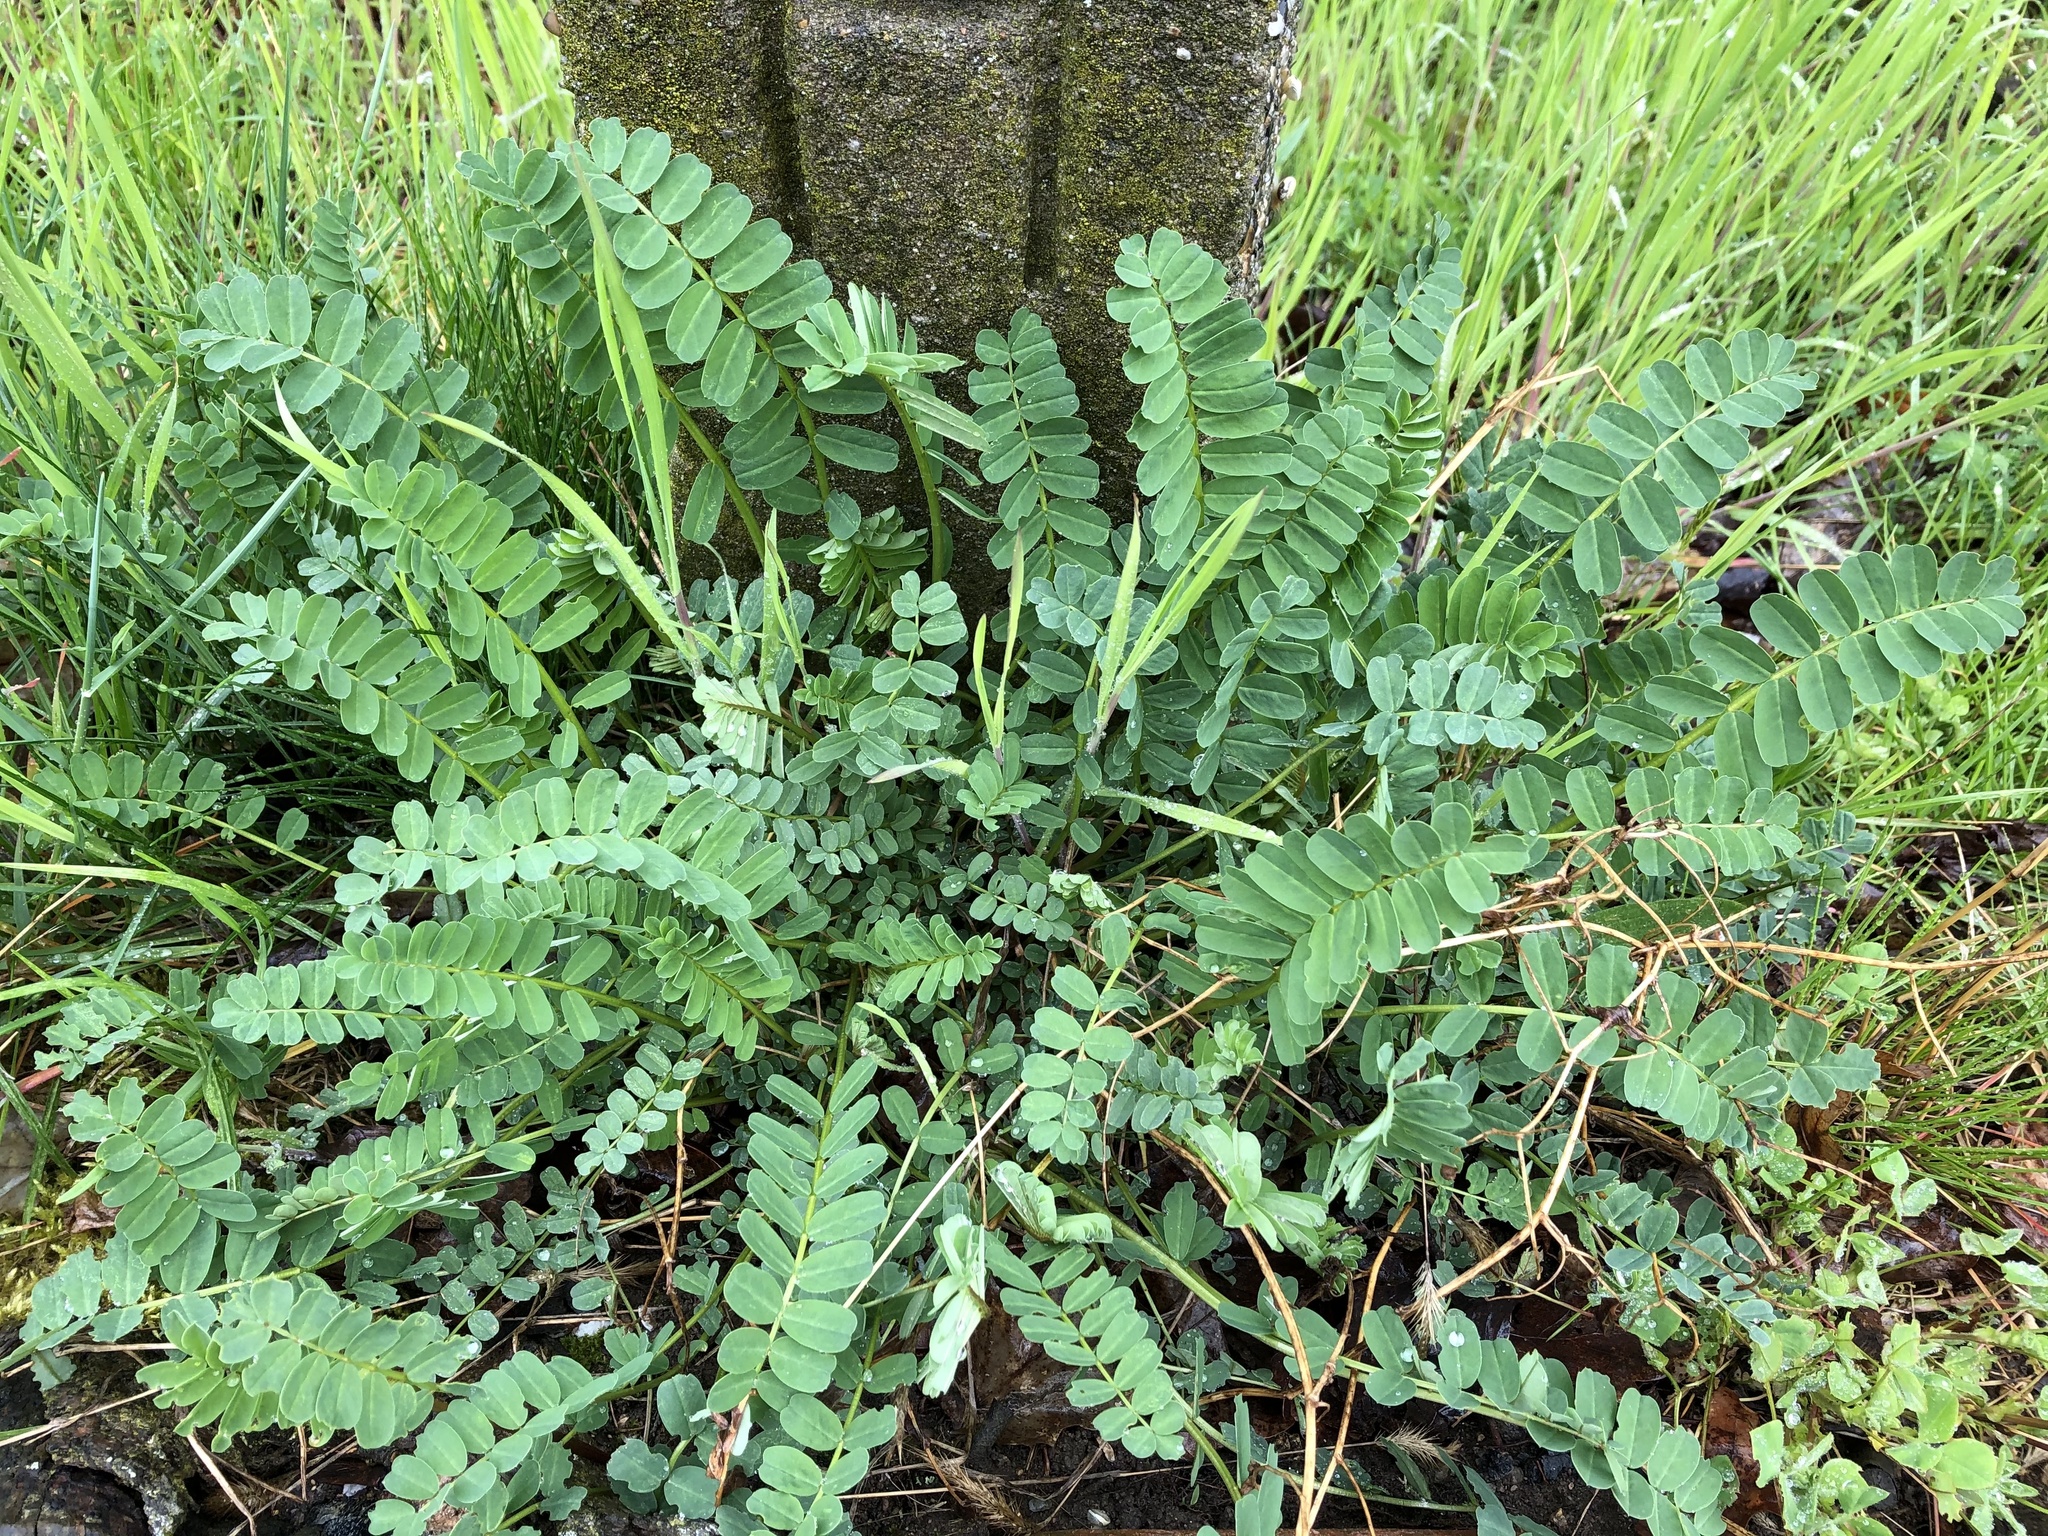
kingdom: Plantae
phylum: Tracheophyta
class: Magnoliopsida
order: Fabales
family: Fabaceae
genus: Coronilla
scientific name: Coronilla varia
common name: Crownvetch
